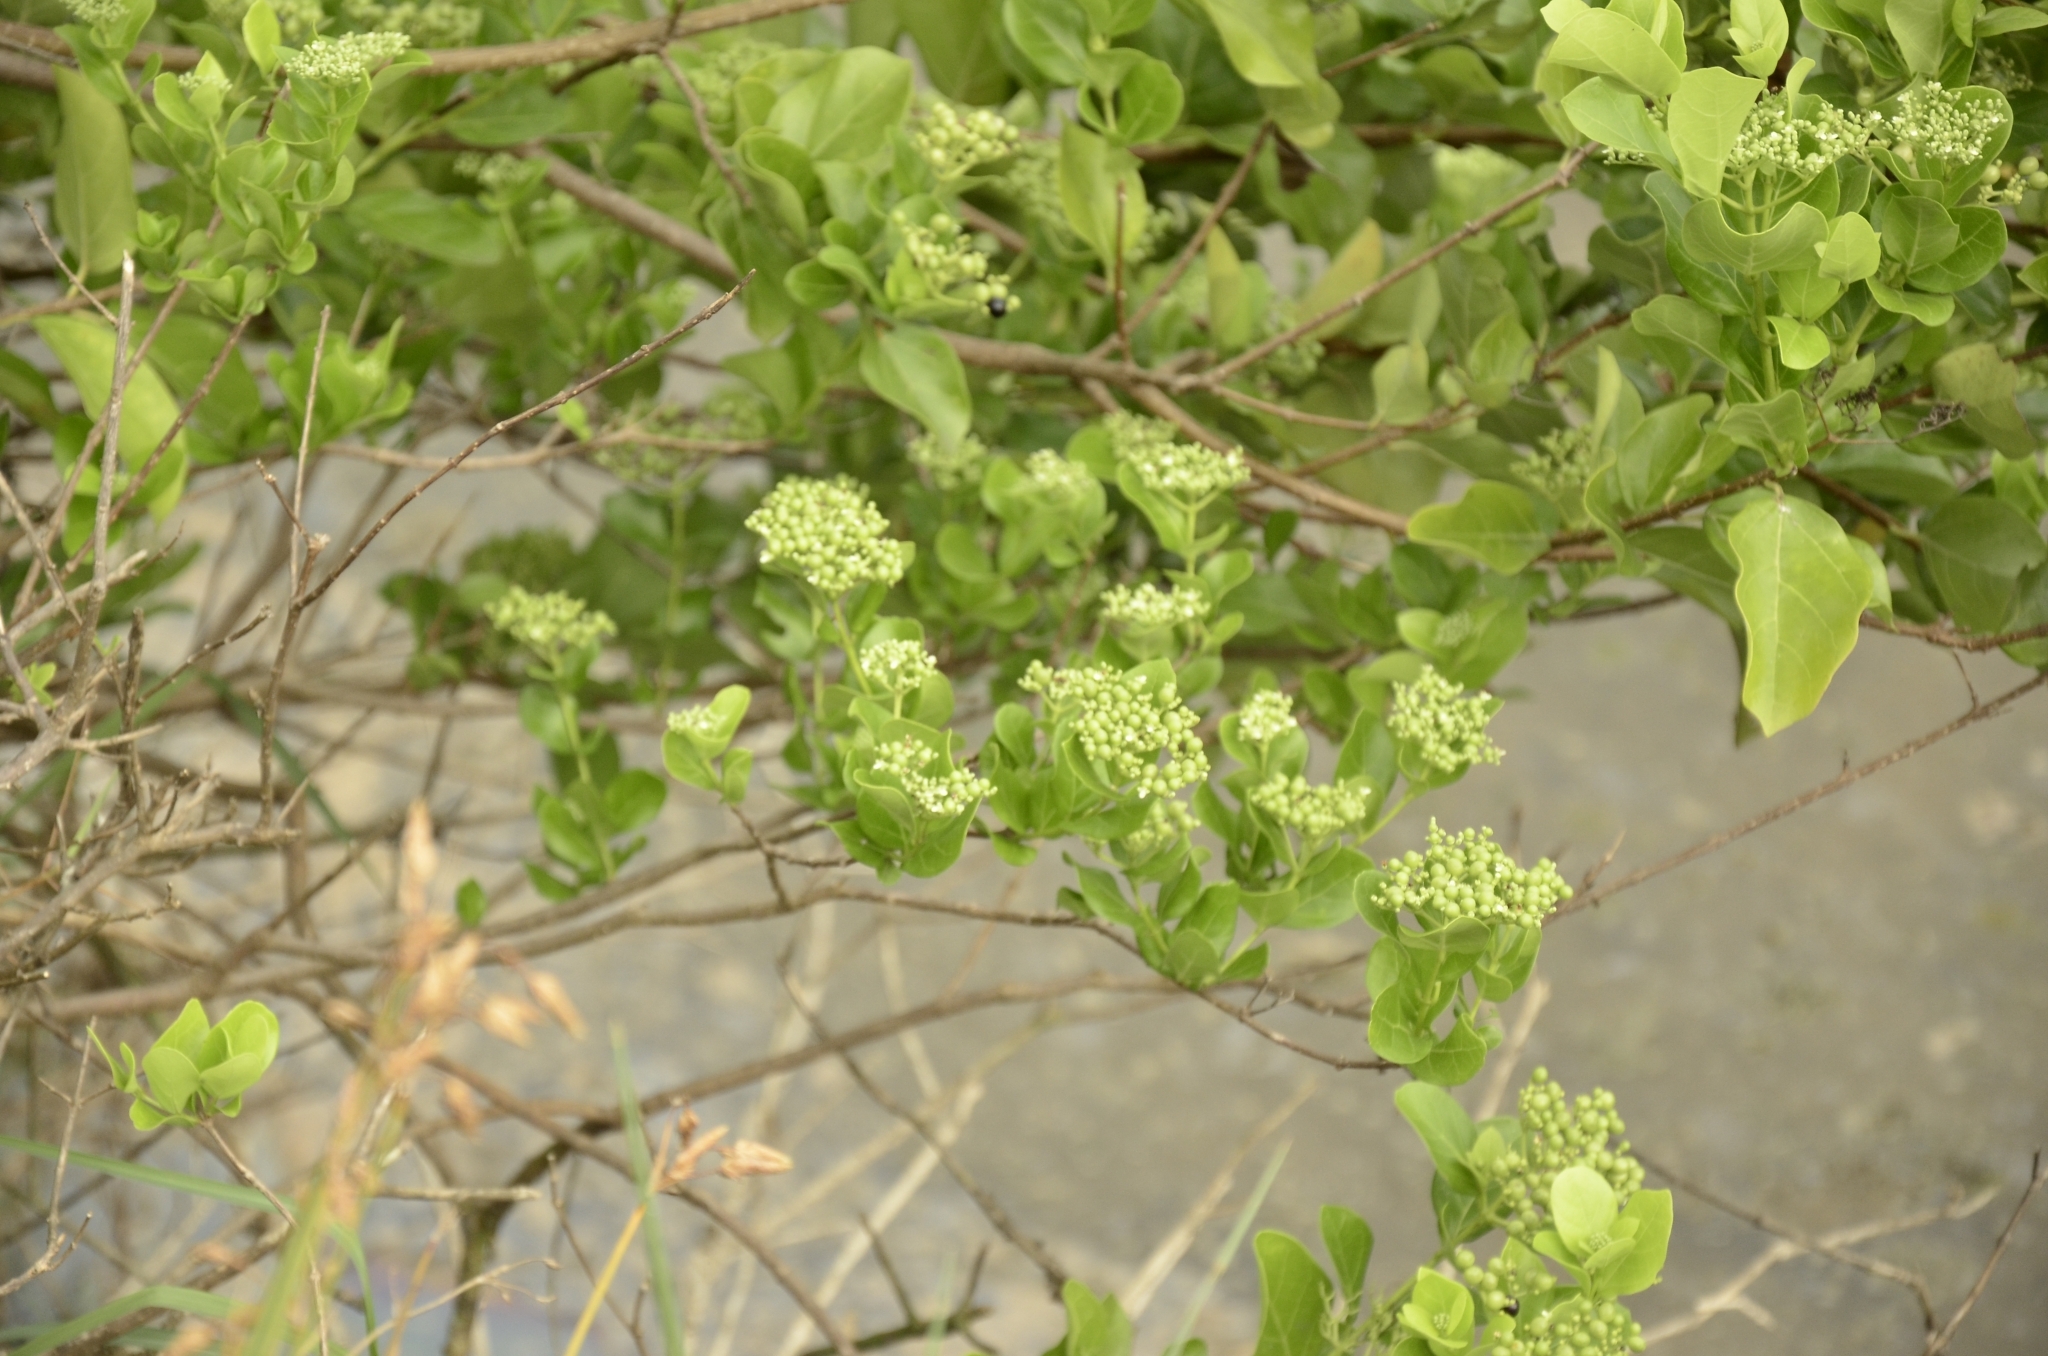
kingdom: Plantae
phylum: Tracheophyta
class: Magnoliopsida
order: Lamiales
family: Lamiaceae
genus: Premna
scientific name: Premna serratifolia
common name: Bastard guelder
